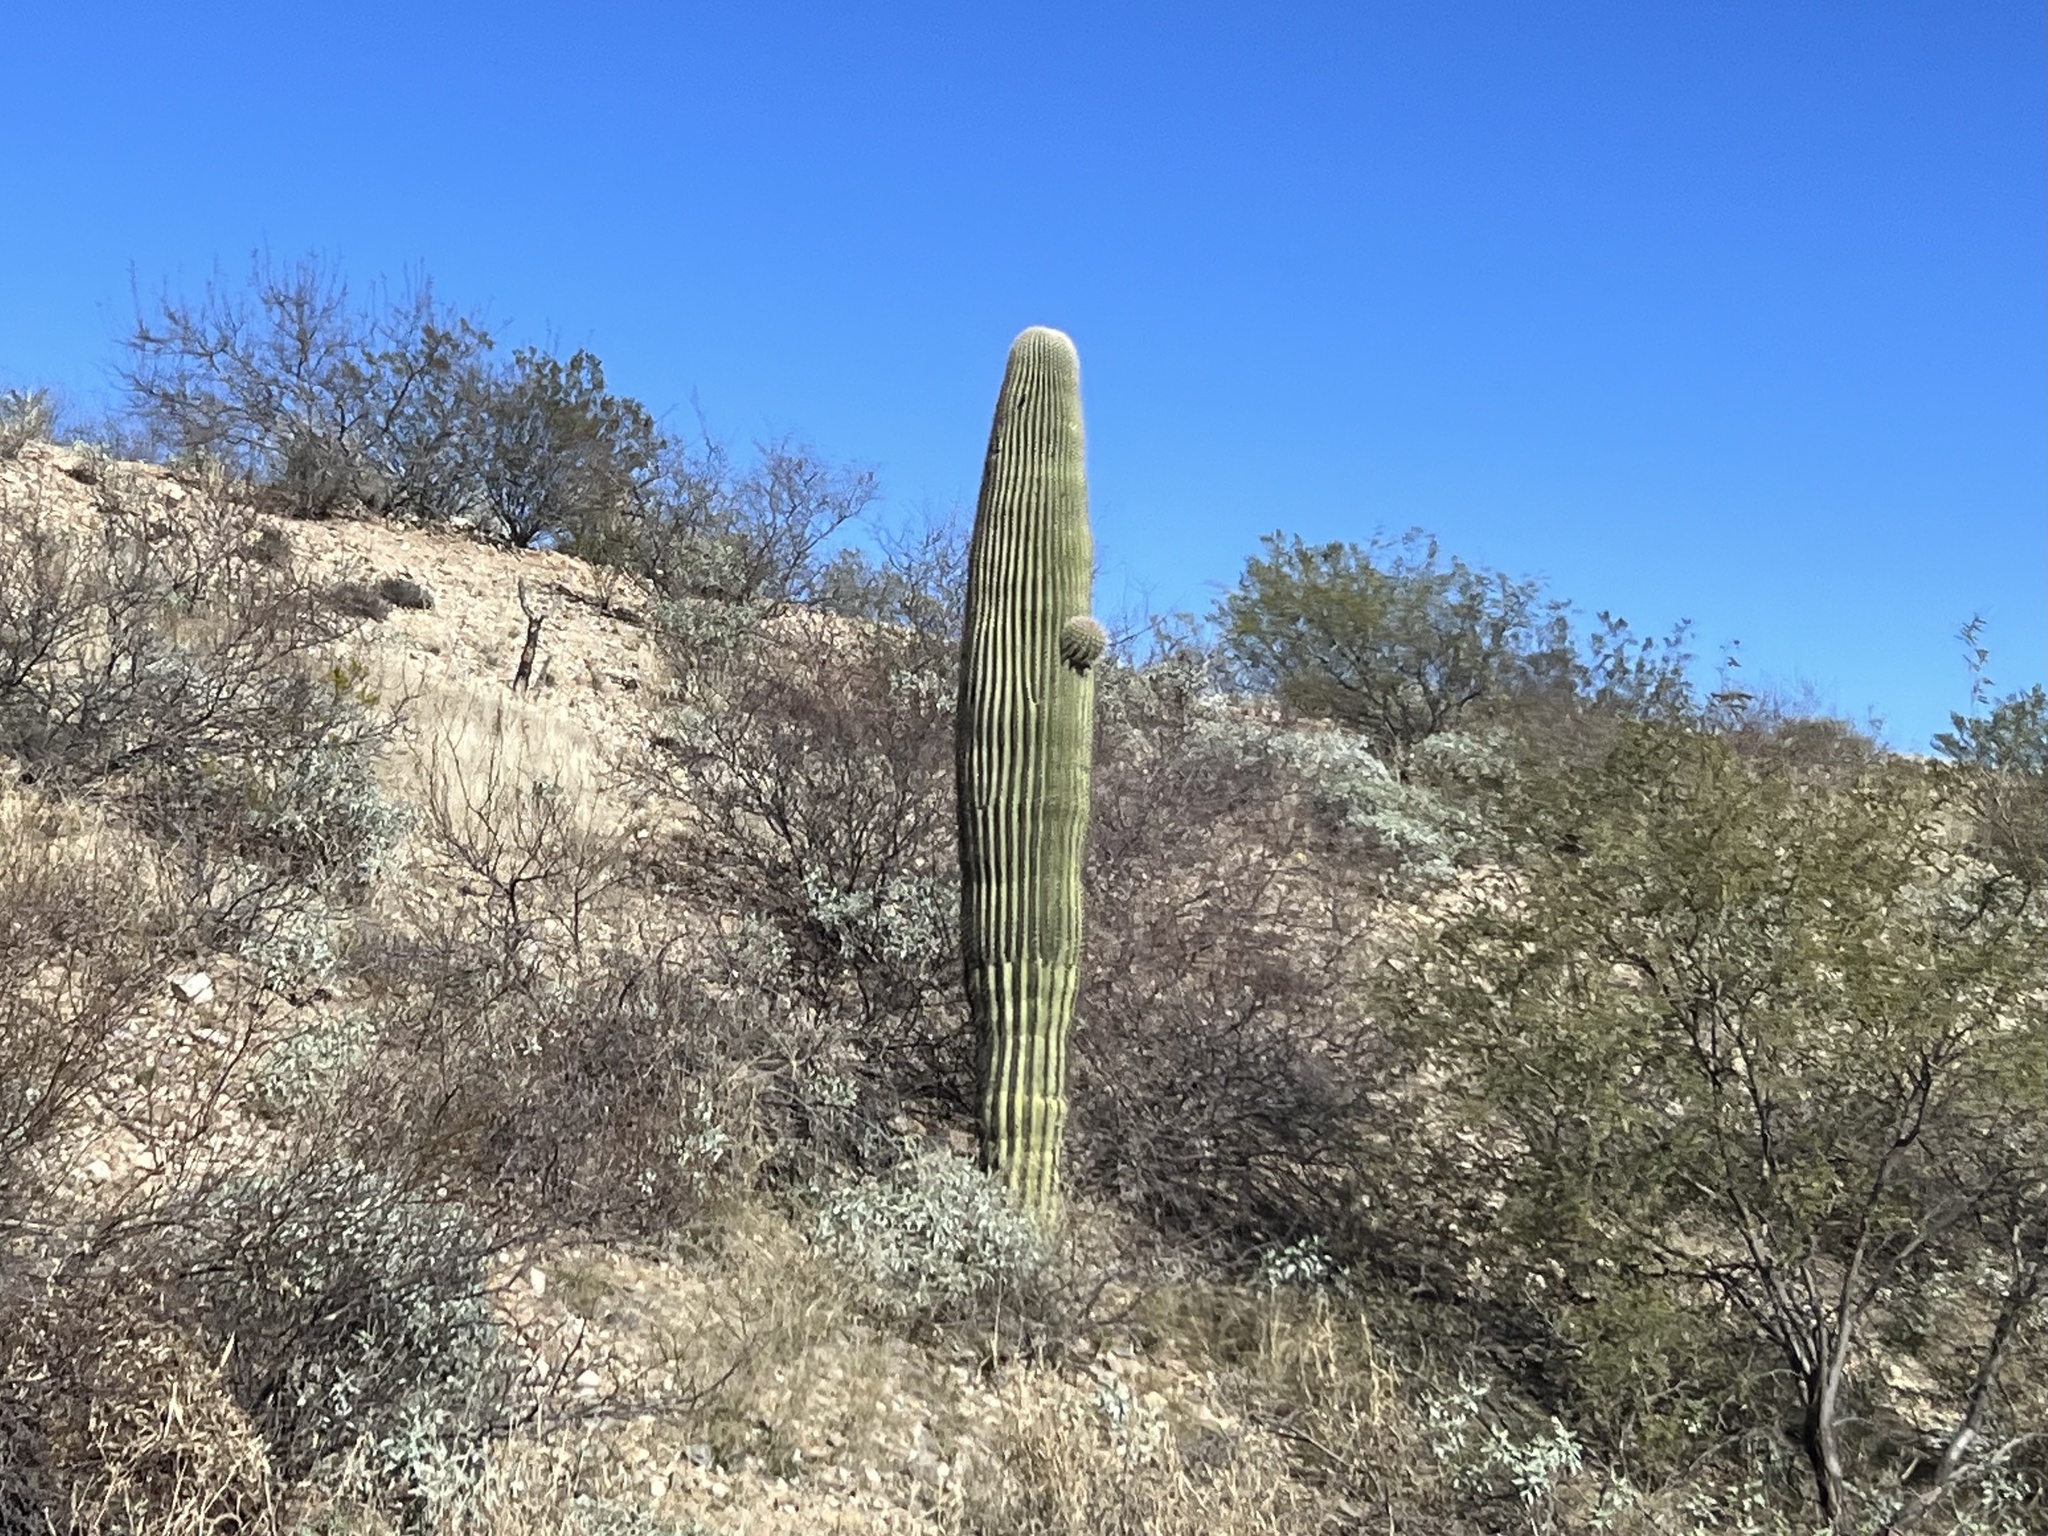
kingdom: Plantae
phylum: Tracheophyta
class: Magnoliopsida
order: Caryophyllales
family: Cactaceae
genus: Carnegiea
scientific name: Carnegiea gigantea
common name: Saguaro
